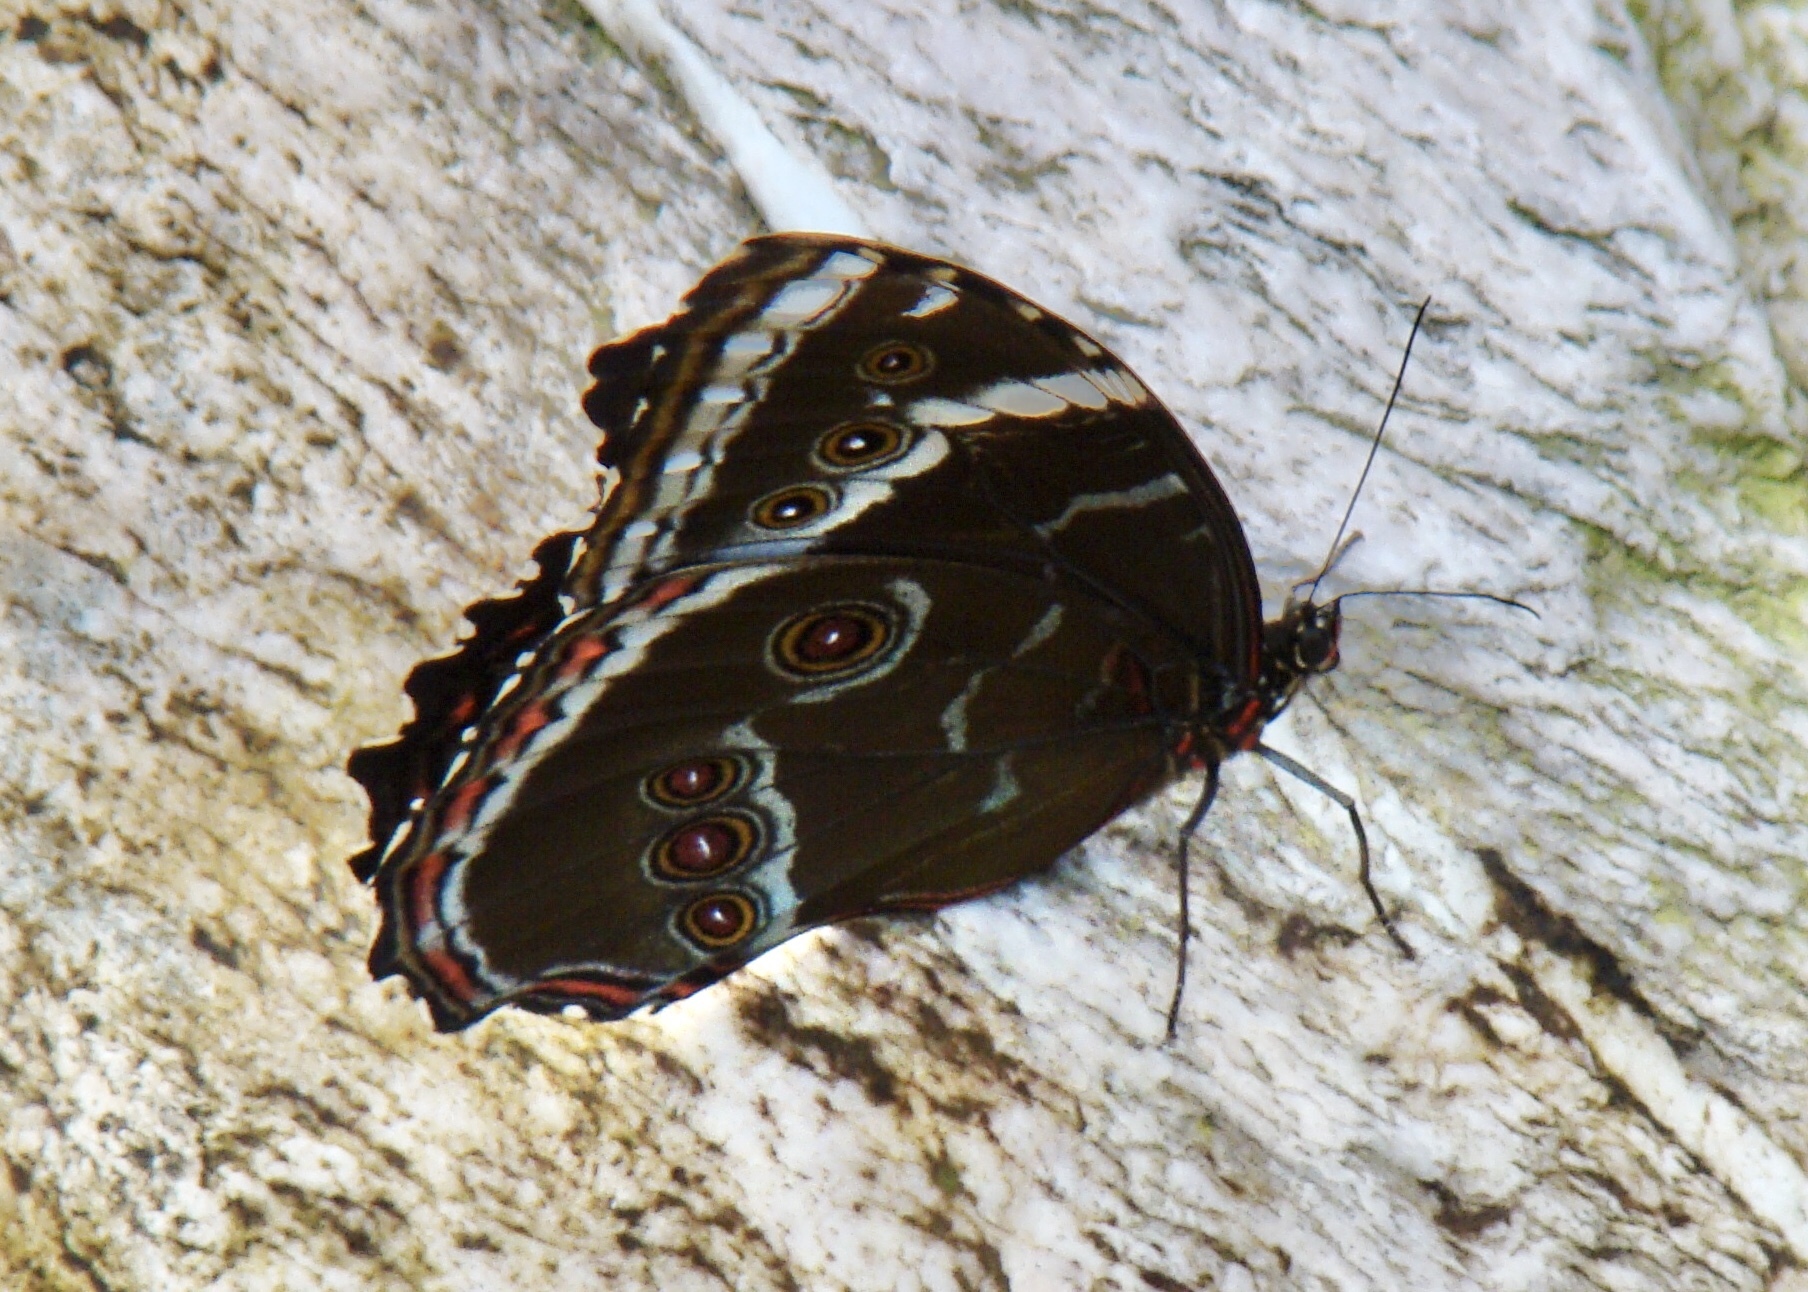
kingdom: Animalia
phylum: Arthropoda
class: Insecta
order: Lepidoptera
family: Nymphalidae
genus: Morpho
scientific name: Morpho helenor
